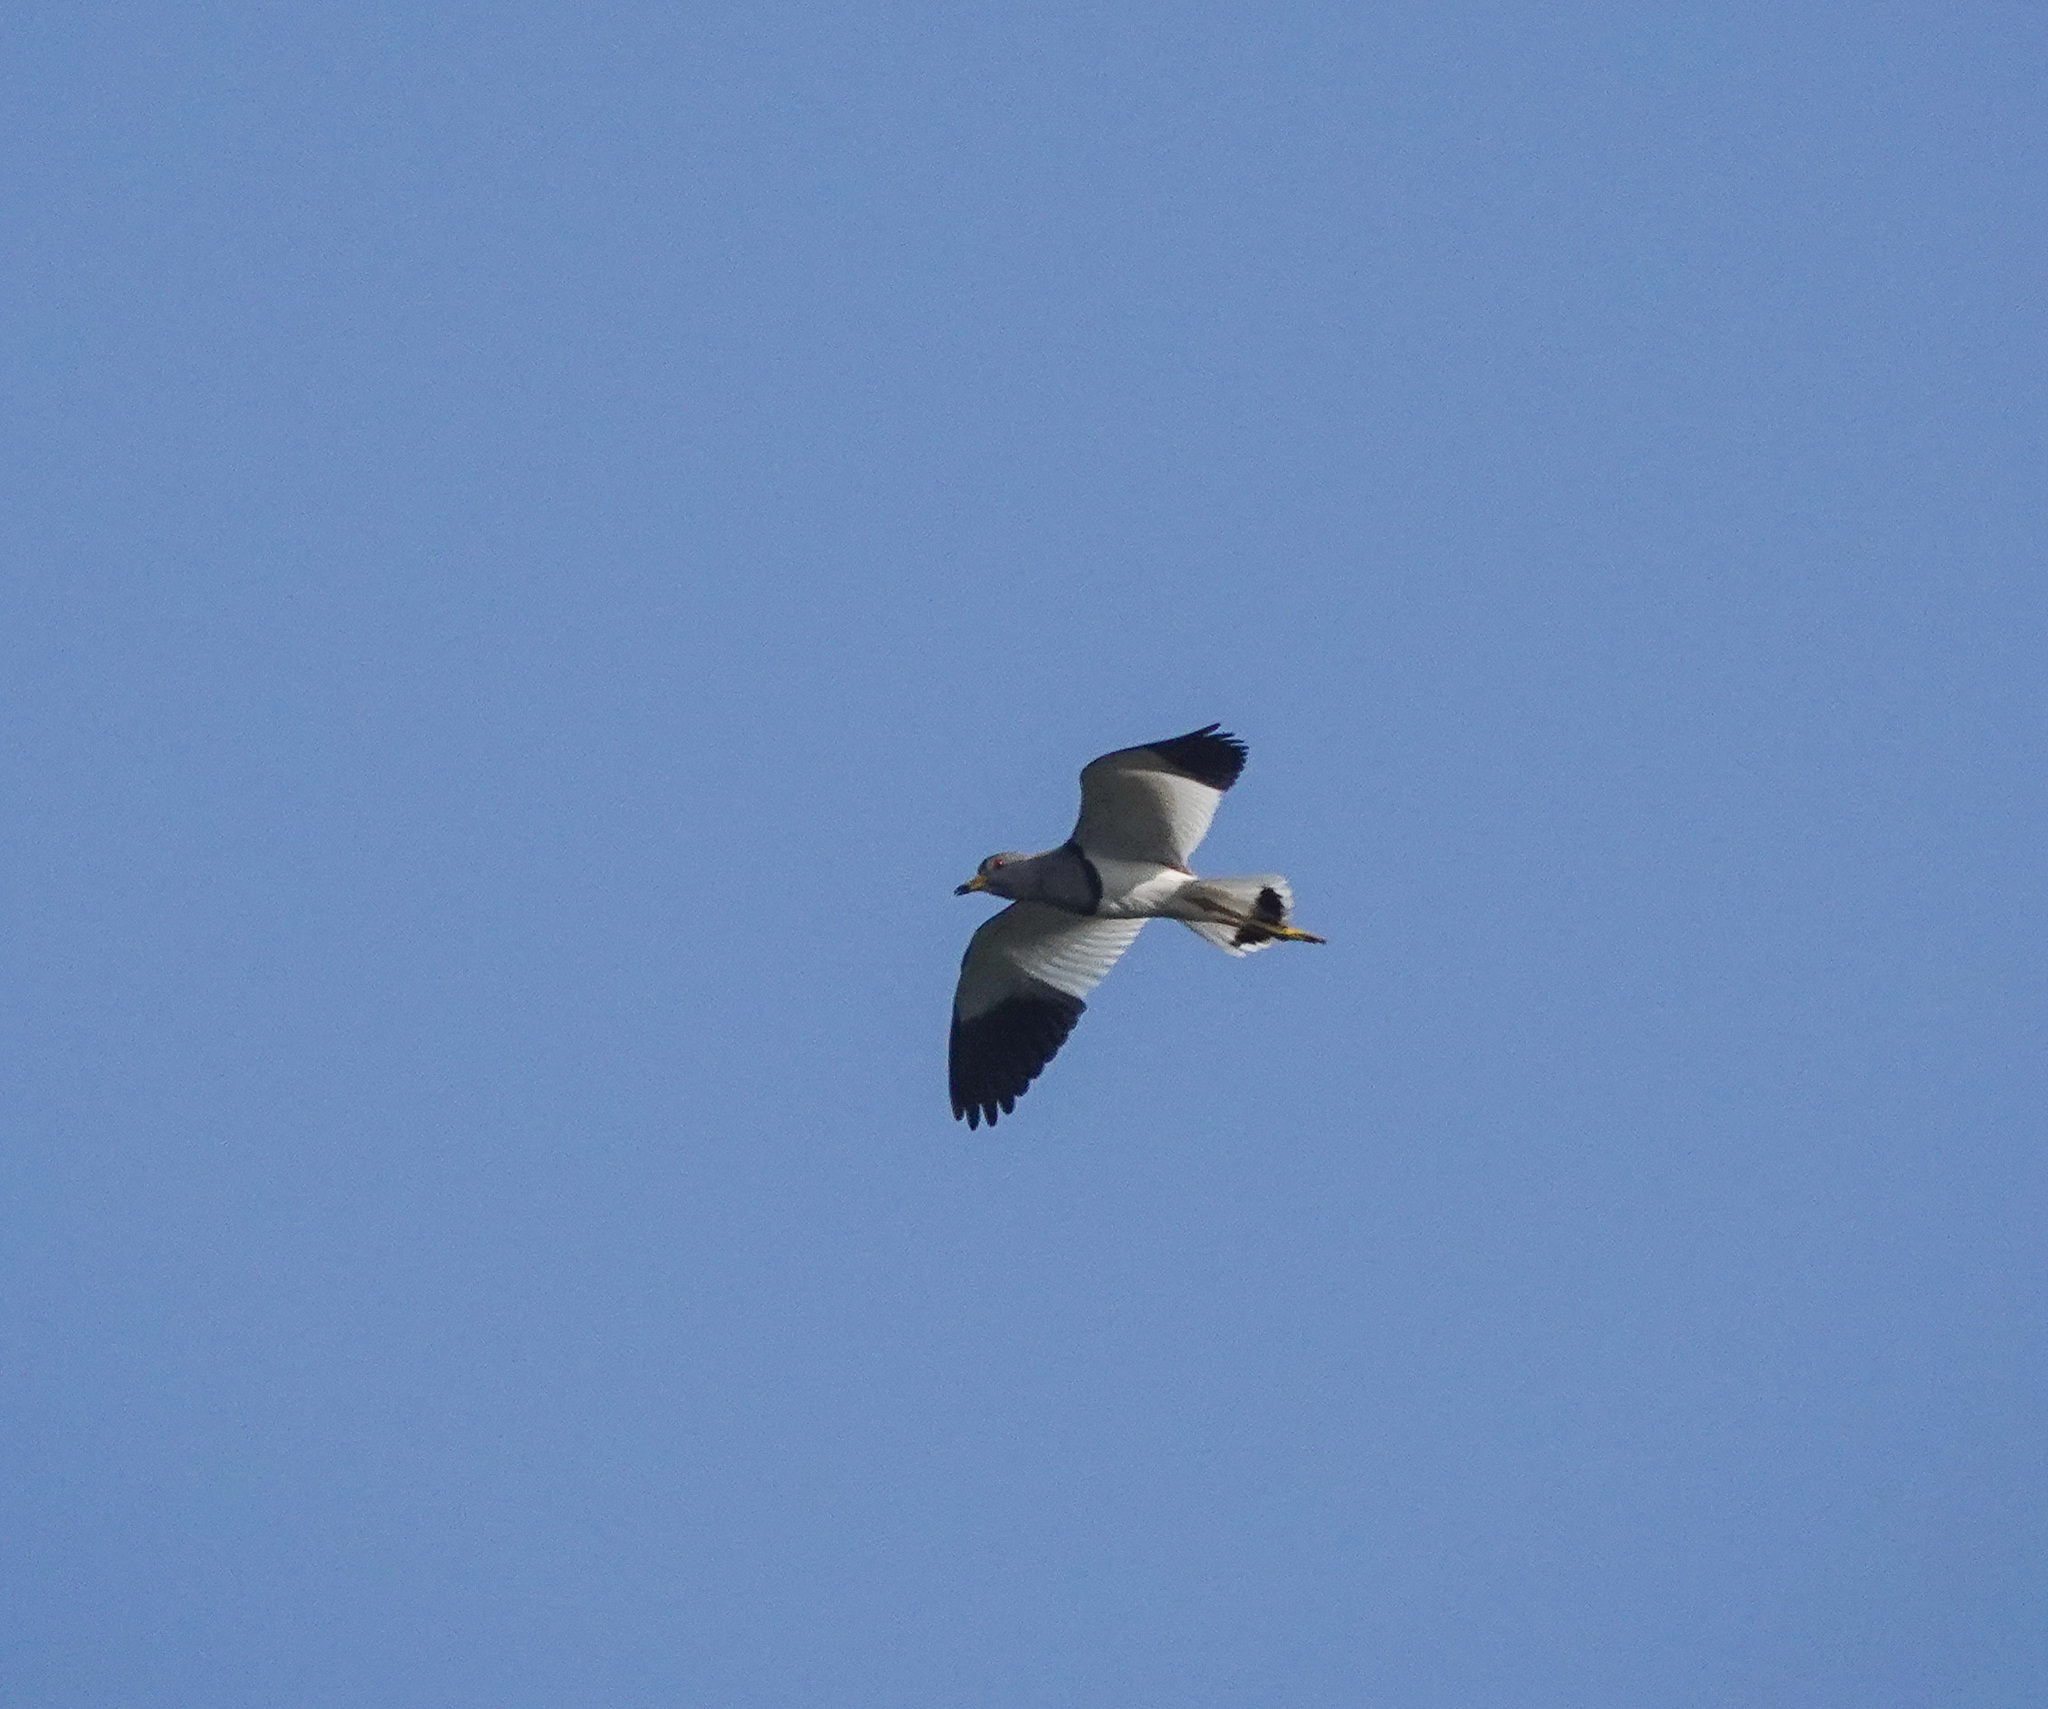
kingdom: Animalia
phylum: Chordata
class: Aves
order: Charadriiformes
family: Charadriidae
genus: Vanellus
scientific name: Vanellus cinereus
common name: Grey-headed lapwing
